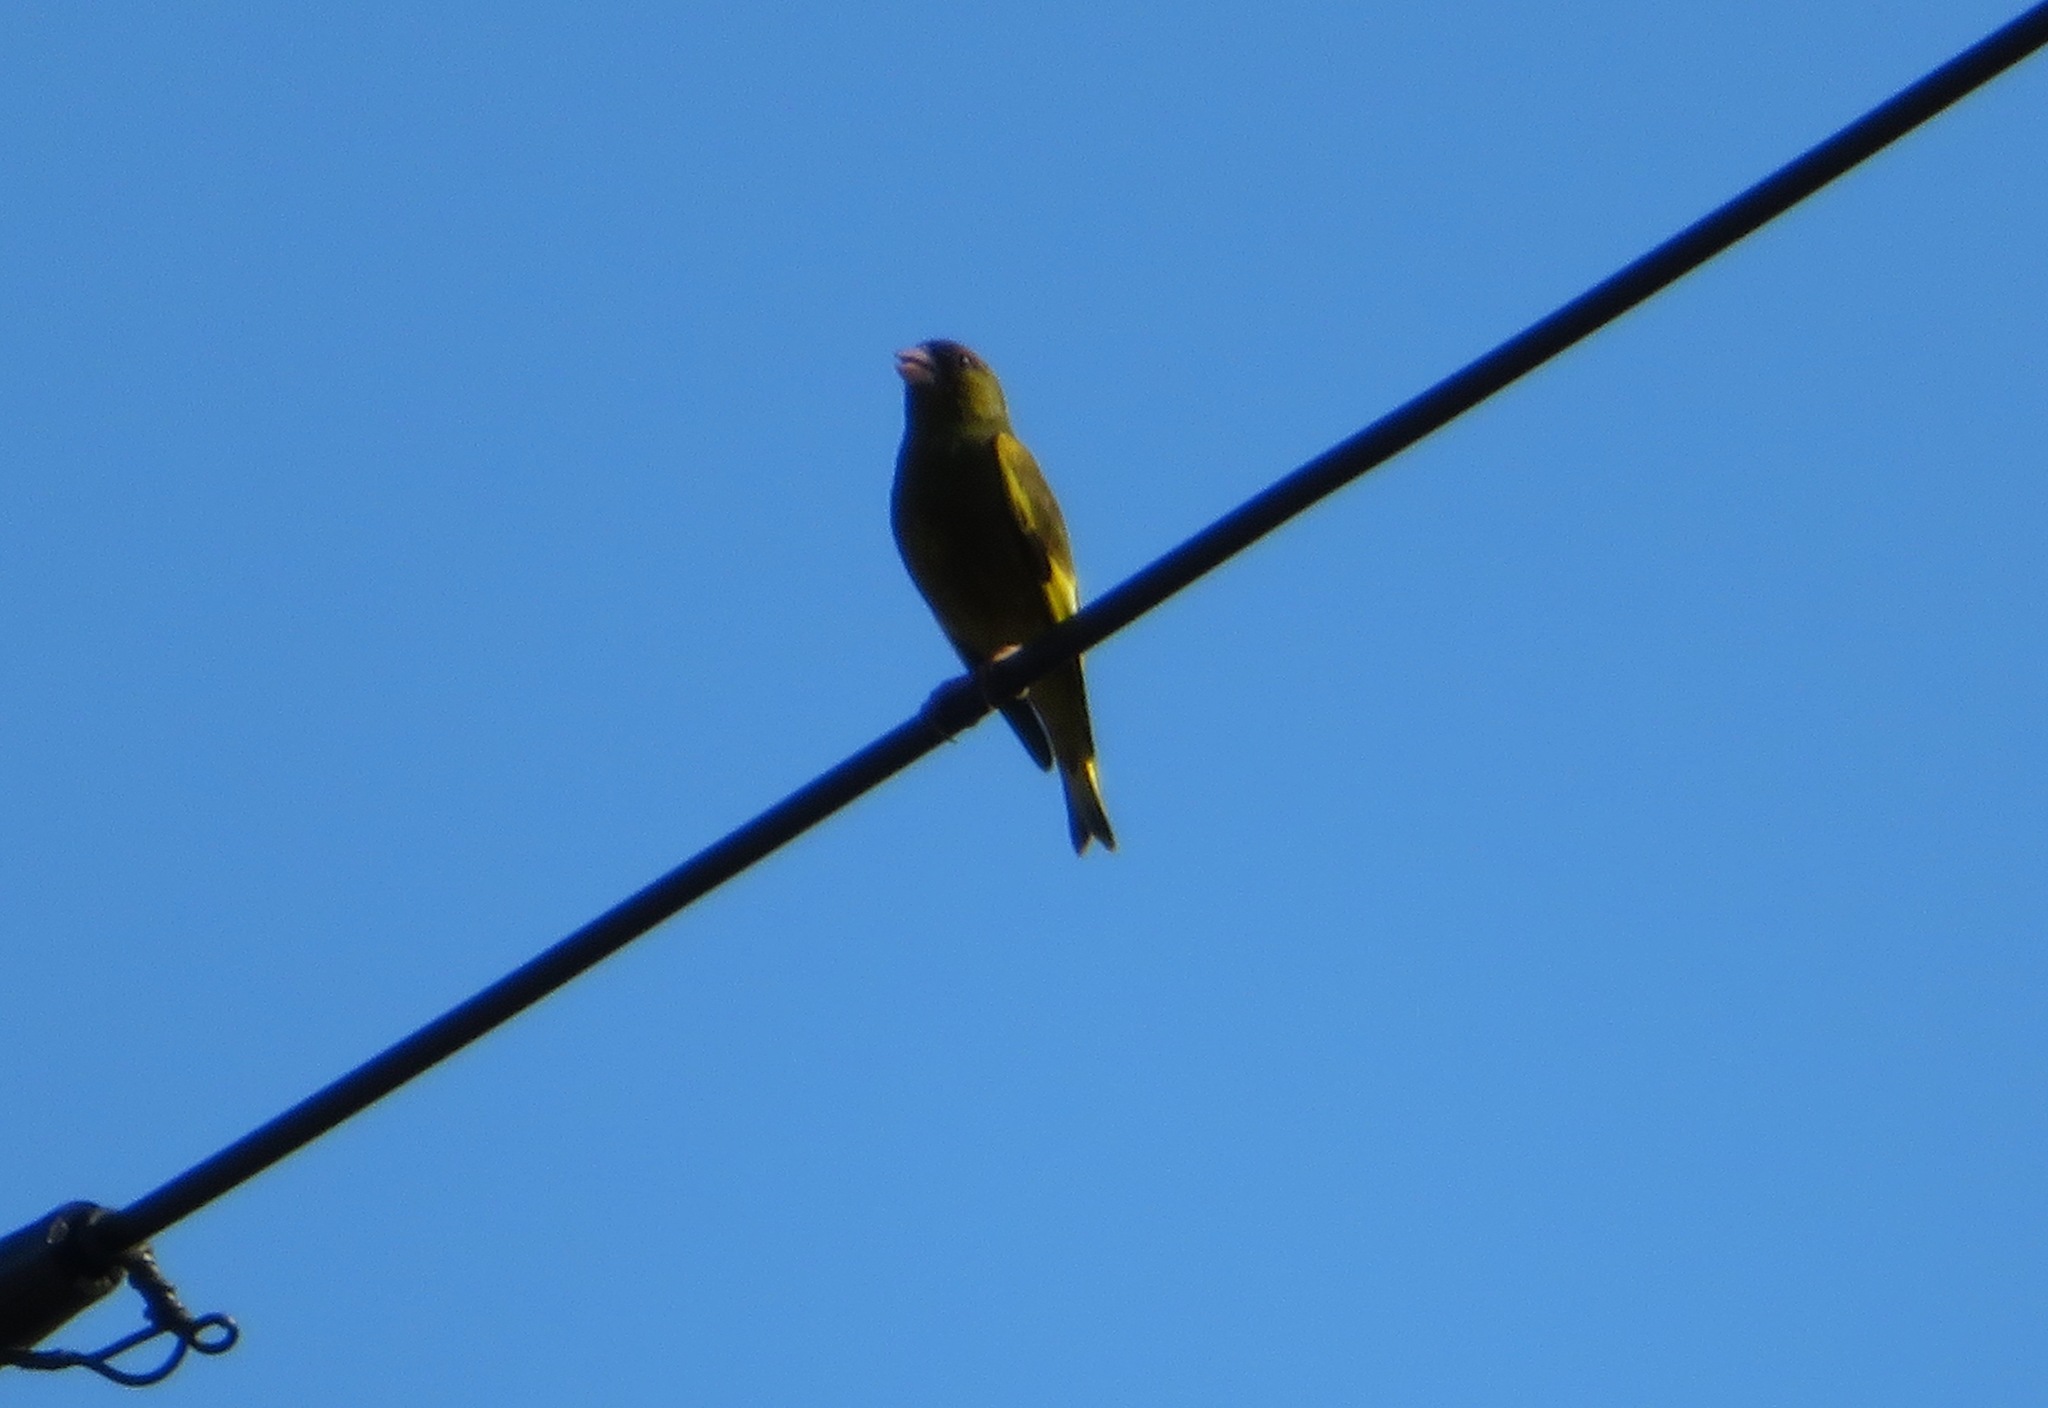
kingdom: Plantae
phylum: Tracheophyta
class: Liliopsida
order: Poales
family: Poaceae
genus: Chloris
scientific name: Chloris sinica
